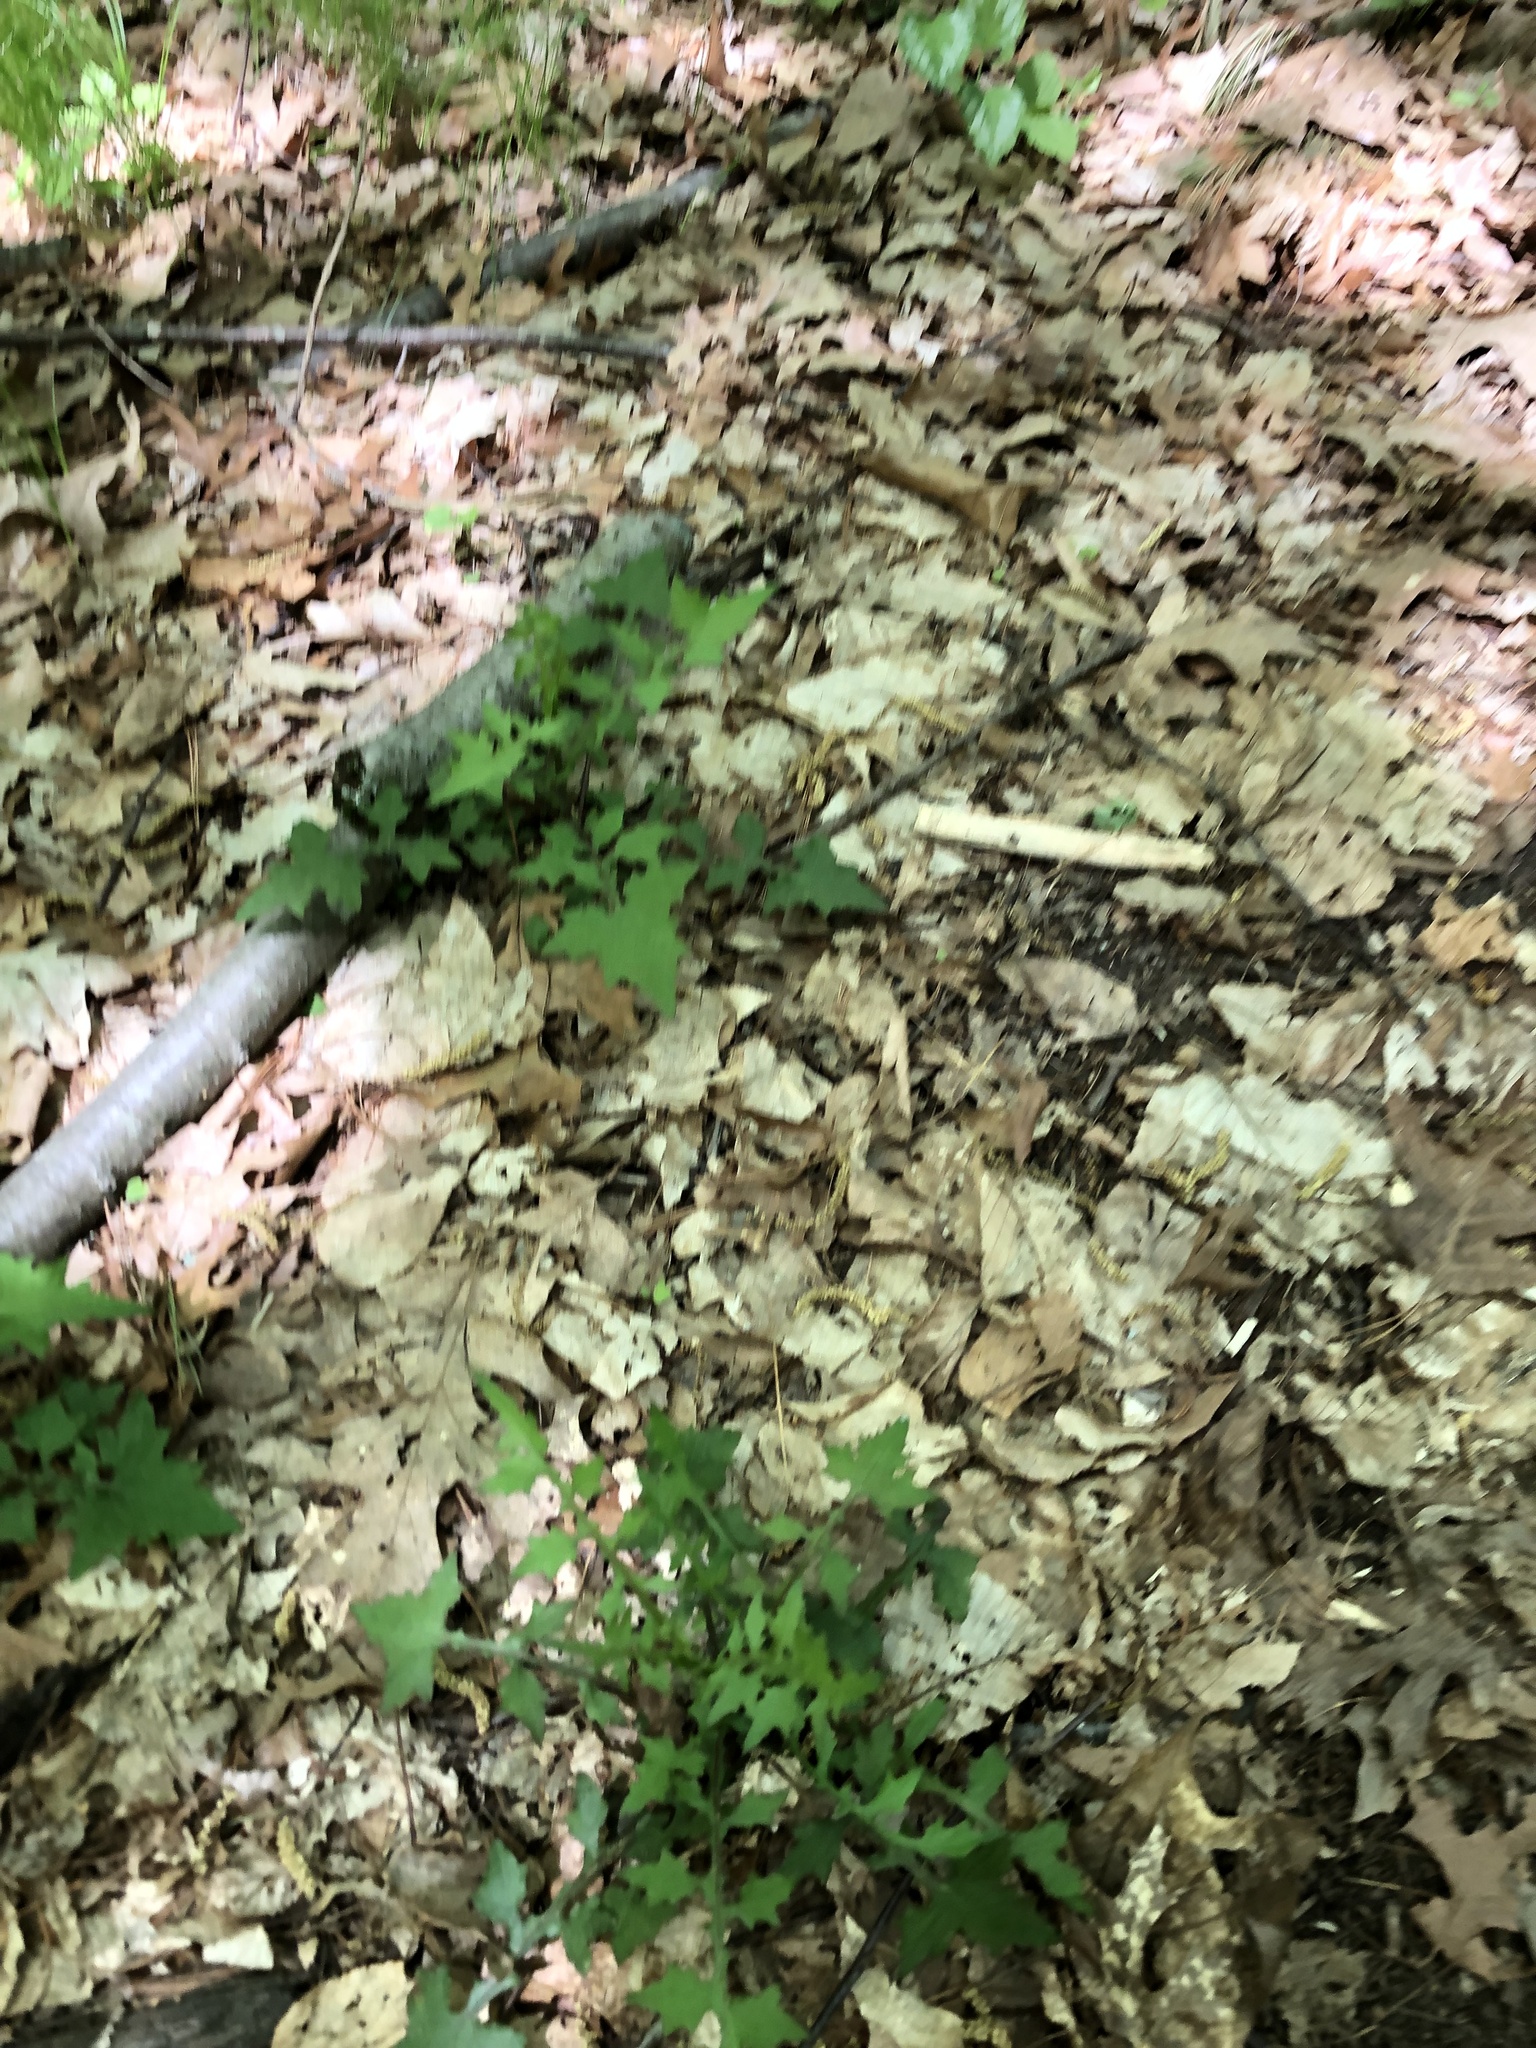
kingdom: Plantae
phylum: Tracheophyta
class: Magnoliopsida
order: Asterales
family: Asteraceae
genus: Mycelis
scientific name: Mycelis muralis
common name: Wall lettuce
